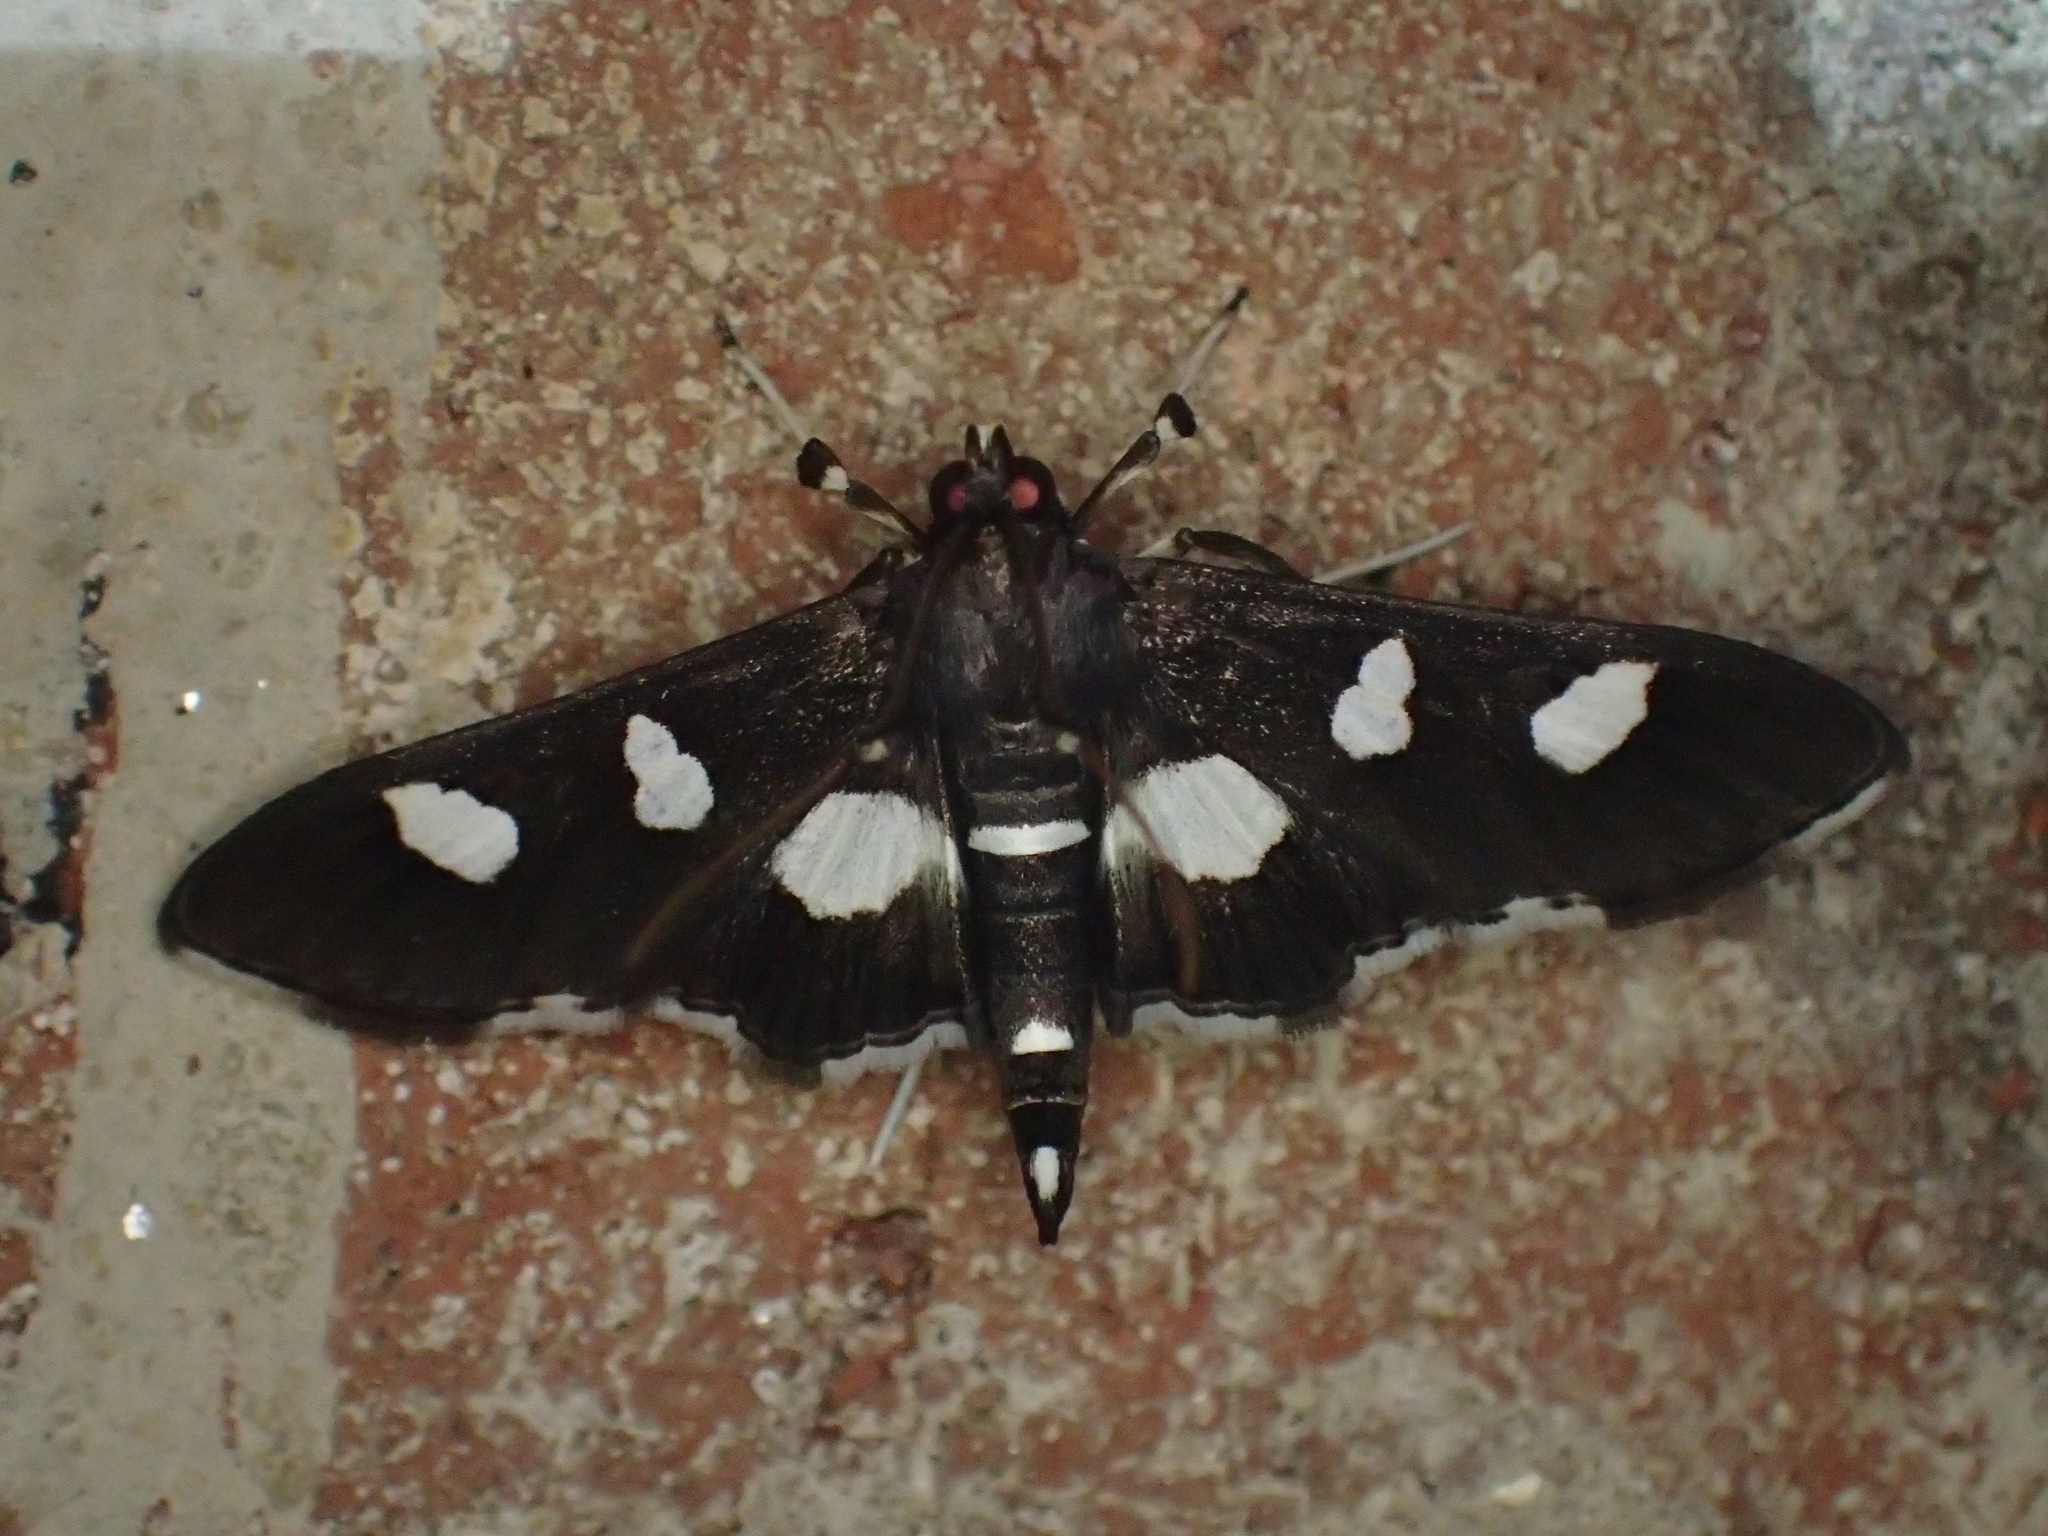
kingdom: Animalia
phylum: Arthropoda
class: Insecta
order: Lepidoptera
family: Crambidae
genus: Desmia
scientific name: Desmia
